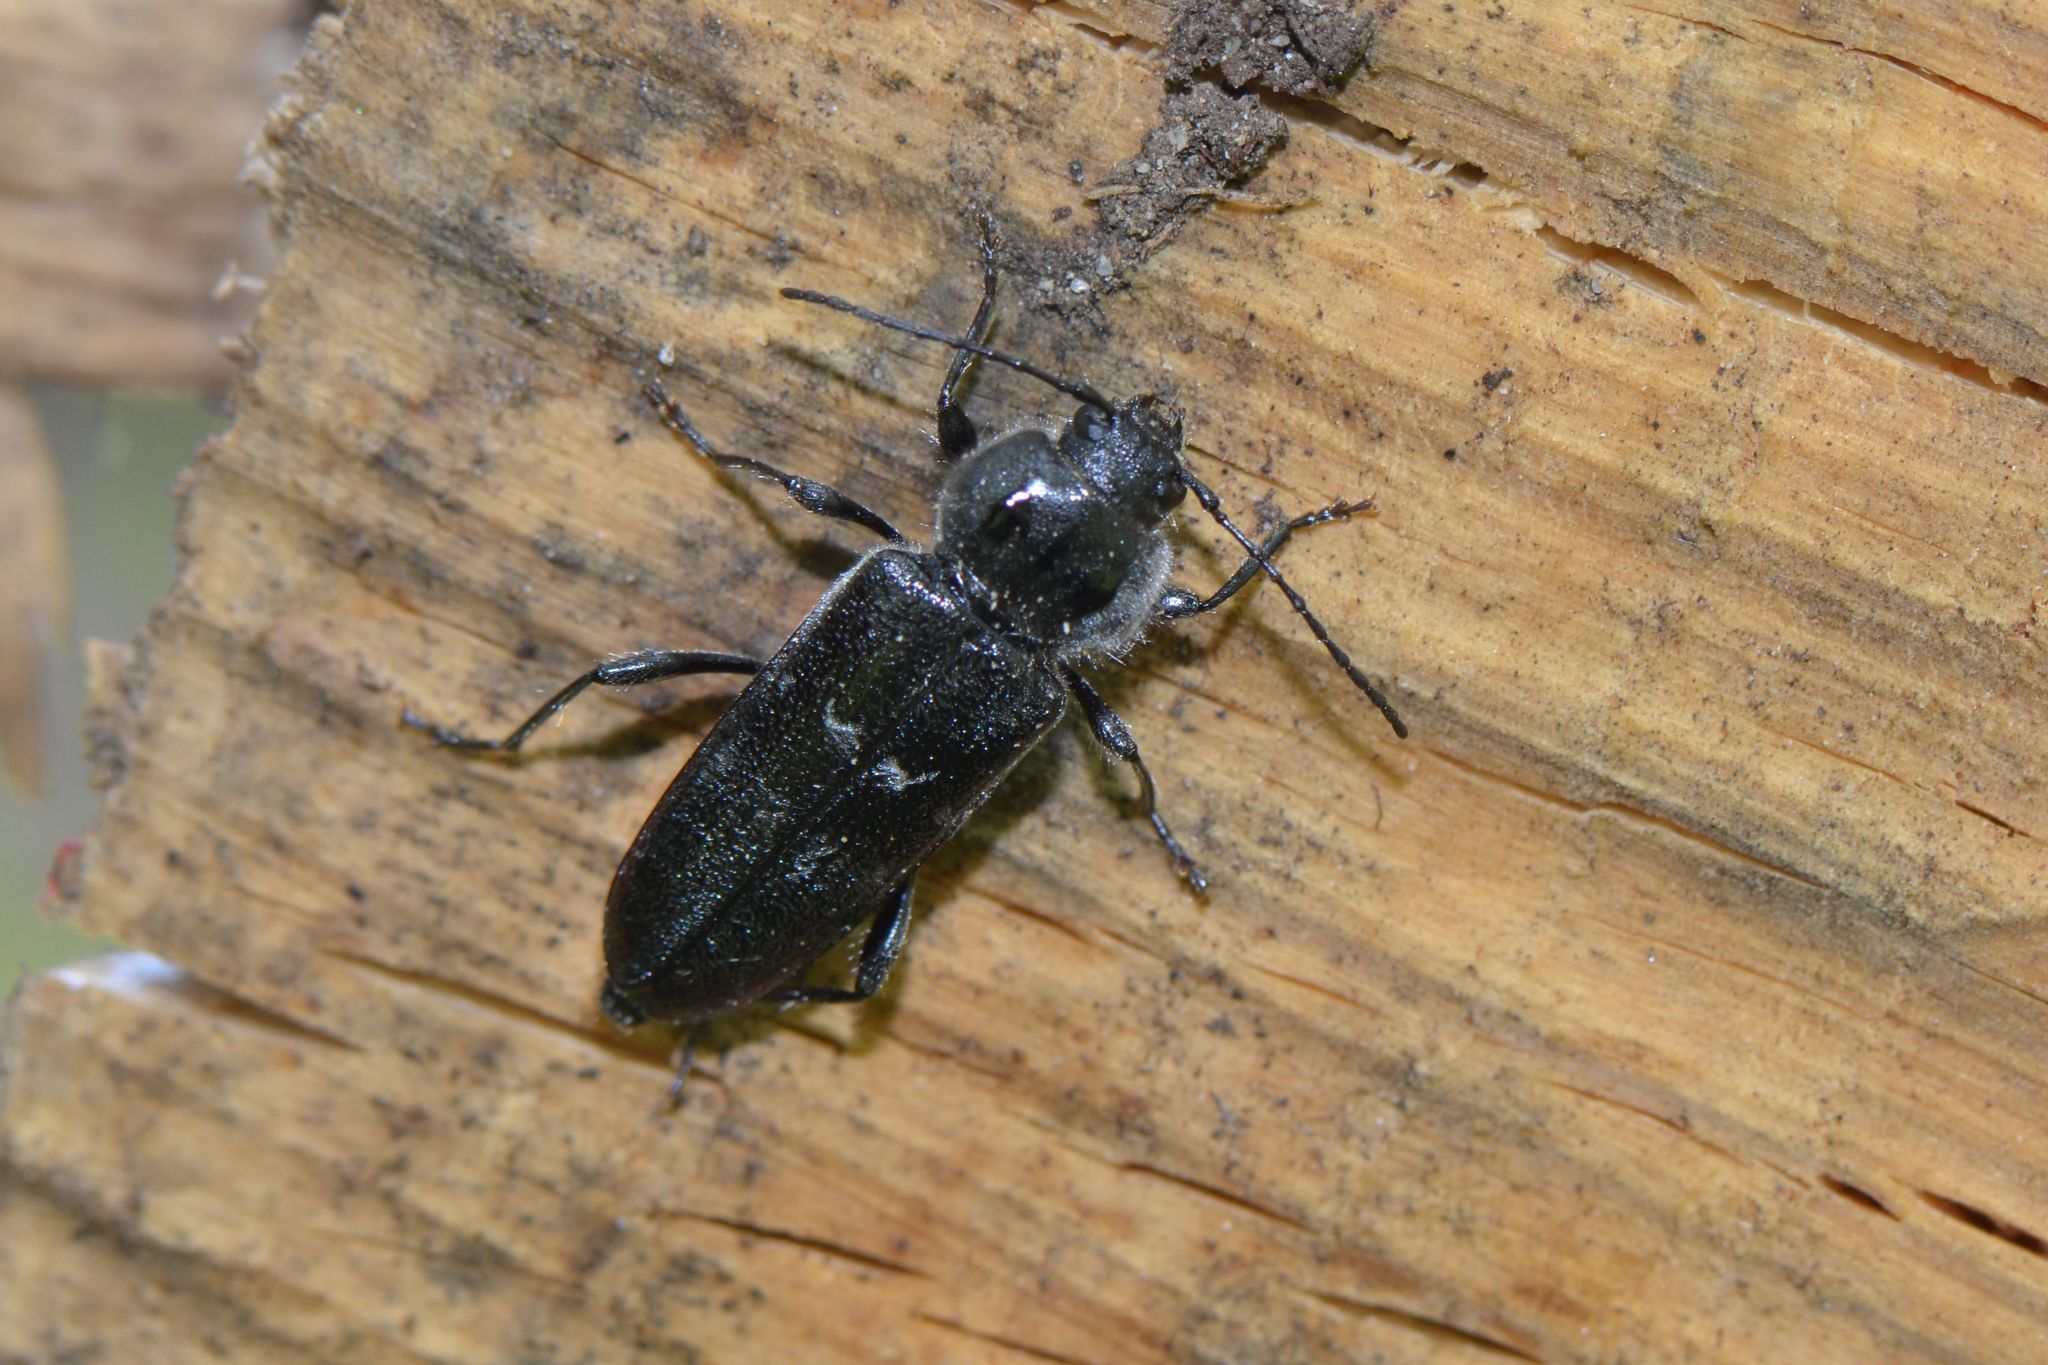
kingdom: Animalia
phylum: Arthropoda
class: Insecta
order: Coleoptera
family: Cerambycidae
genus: Hylotrupes
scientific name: Hylotrupes bajulus
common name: Old house borer
